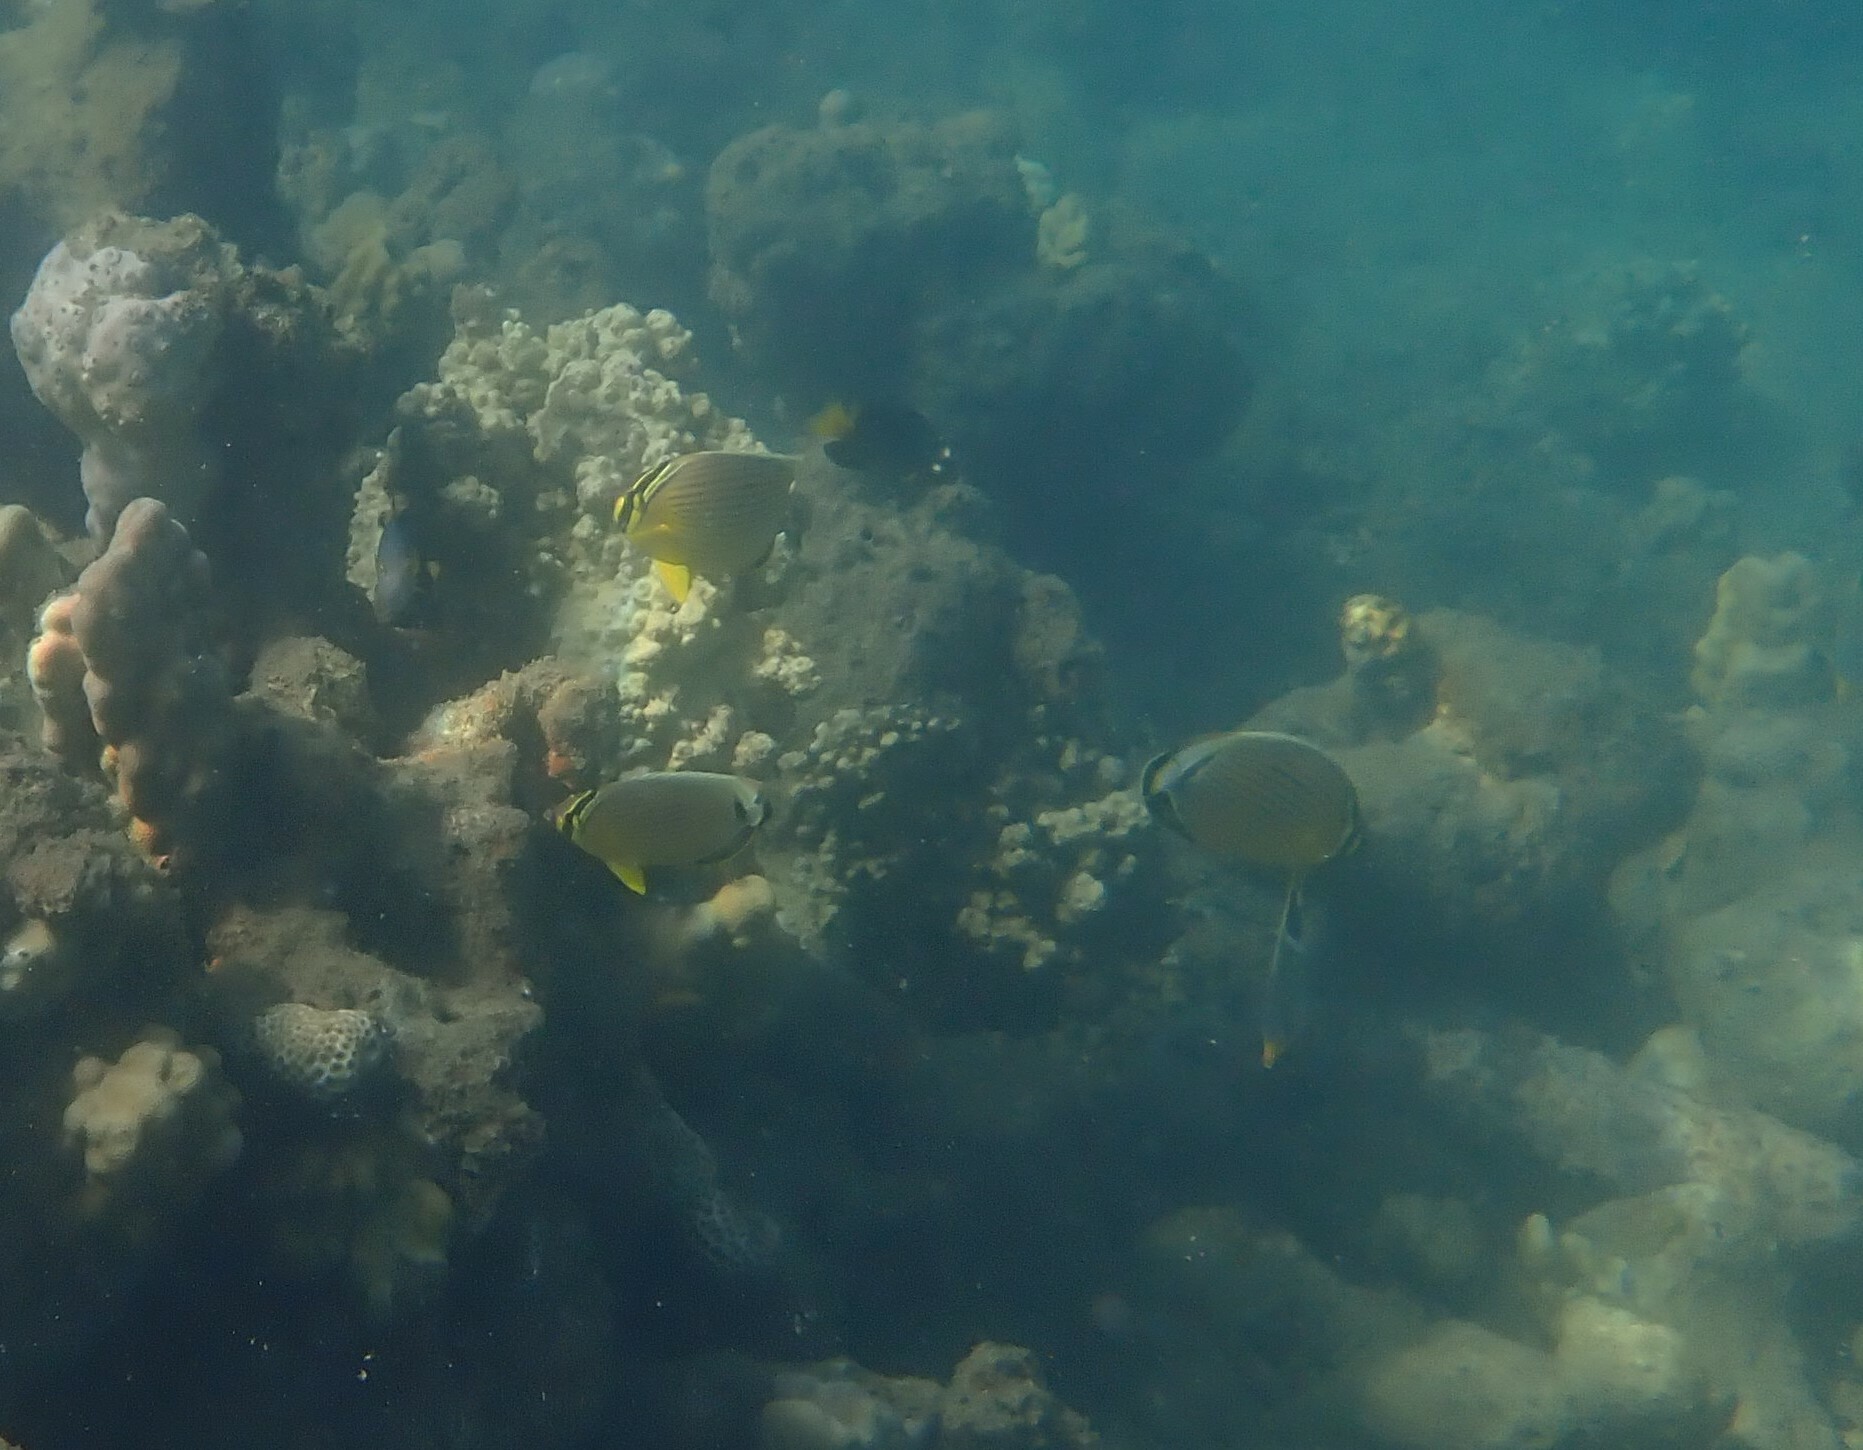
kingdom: Animalia
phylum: Chordata
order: Perciformes
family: Chaetodontidae
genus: Chaetodon
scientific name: Chaetodon lunulatus
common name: Redfin butterflyfish
